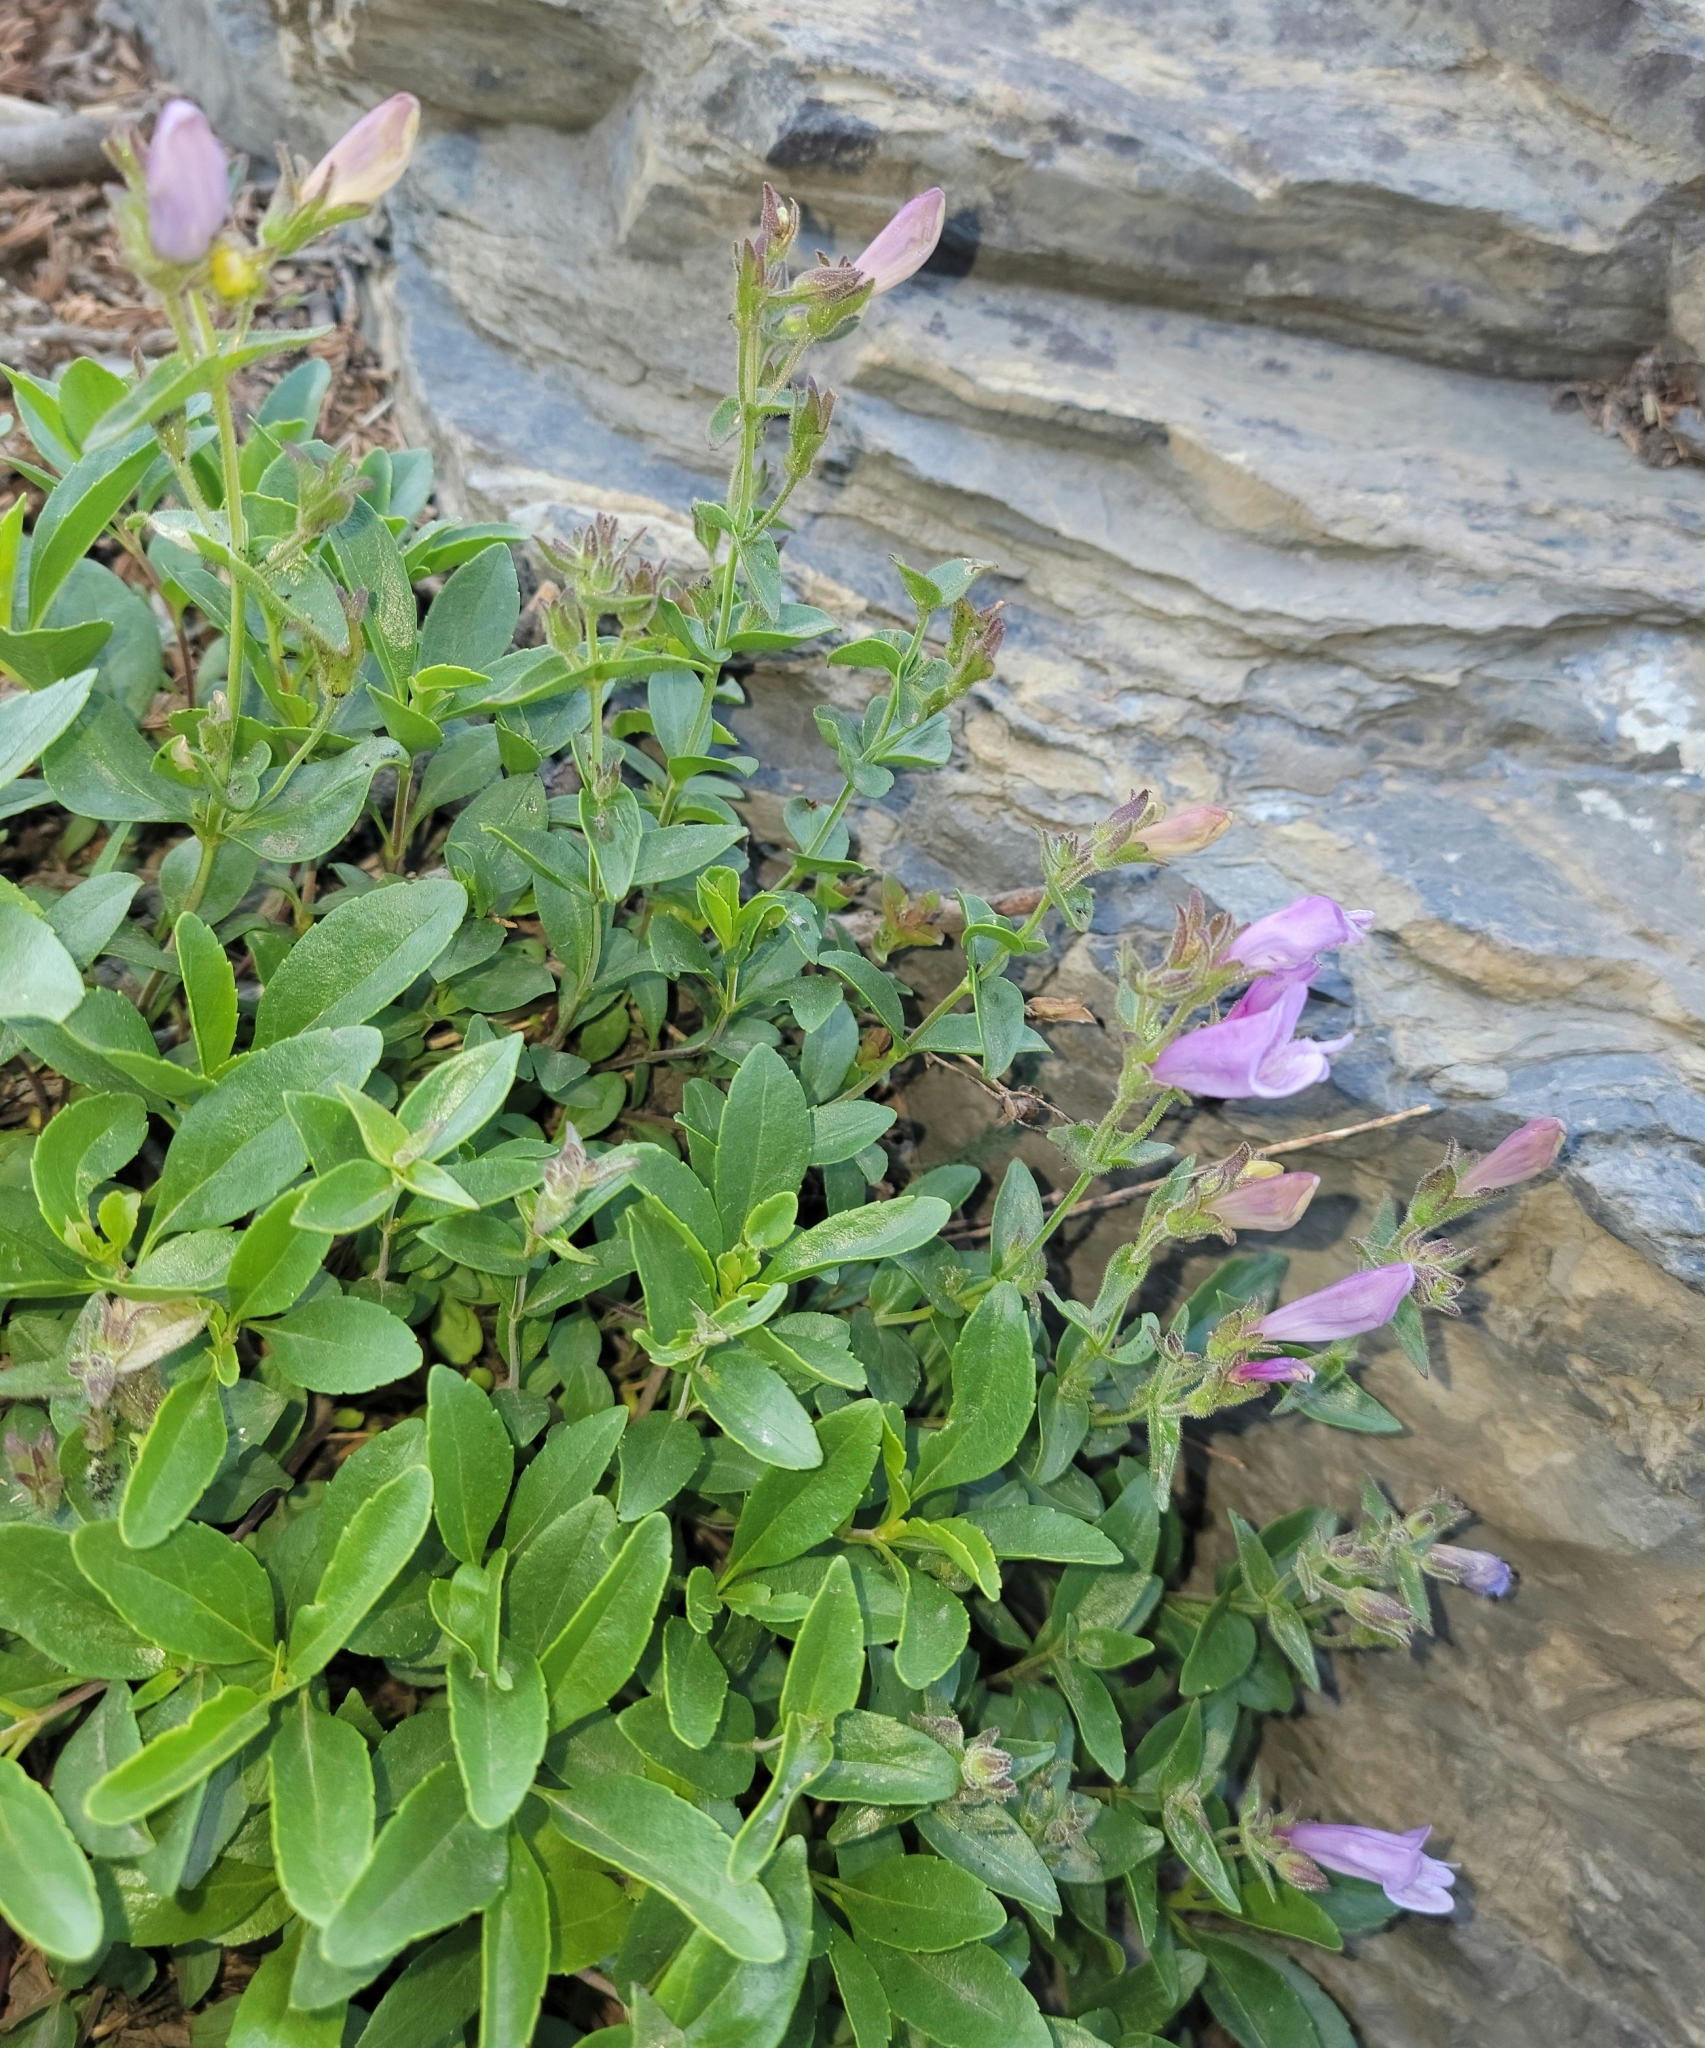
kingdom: Plantae
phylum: Tracheophyta
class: Magnoliopsida
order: Lamiales
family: Plantaginaceae
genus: Penstemon
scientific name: Penstemon ellipticus
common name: Alpine beardtongue
